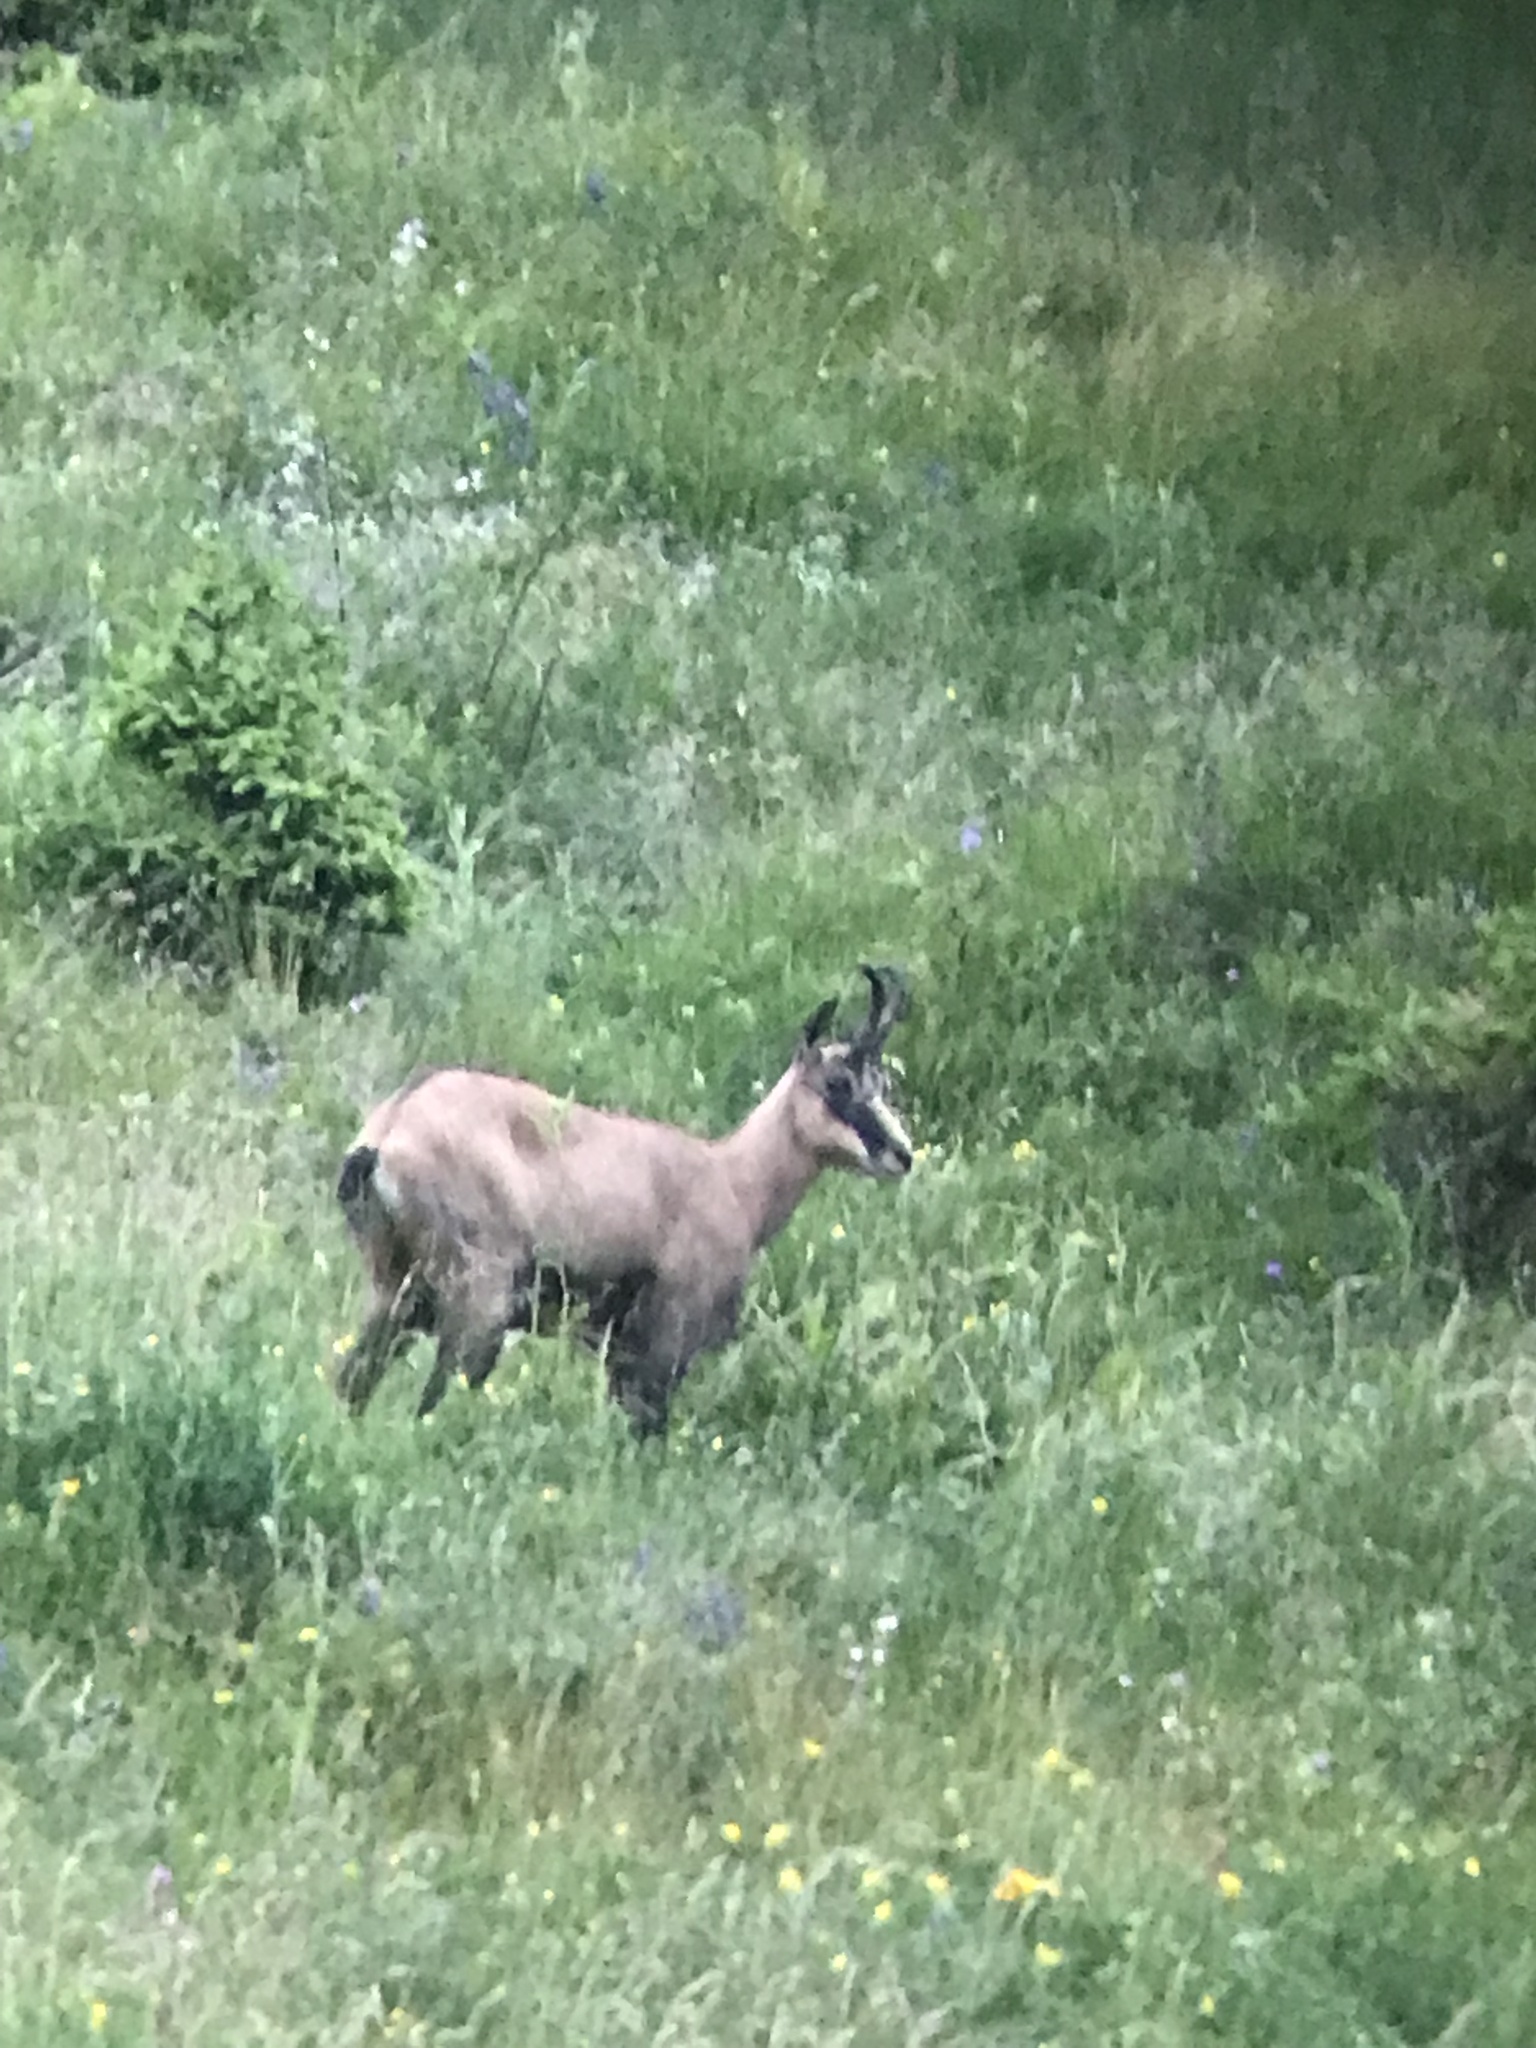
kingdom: Animalia
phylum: Chordata
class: Mammalia
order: Artiodactyla
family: Bovidae
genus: Rupicapra
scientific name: Rupicapra rupicapra
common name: Chamois
